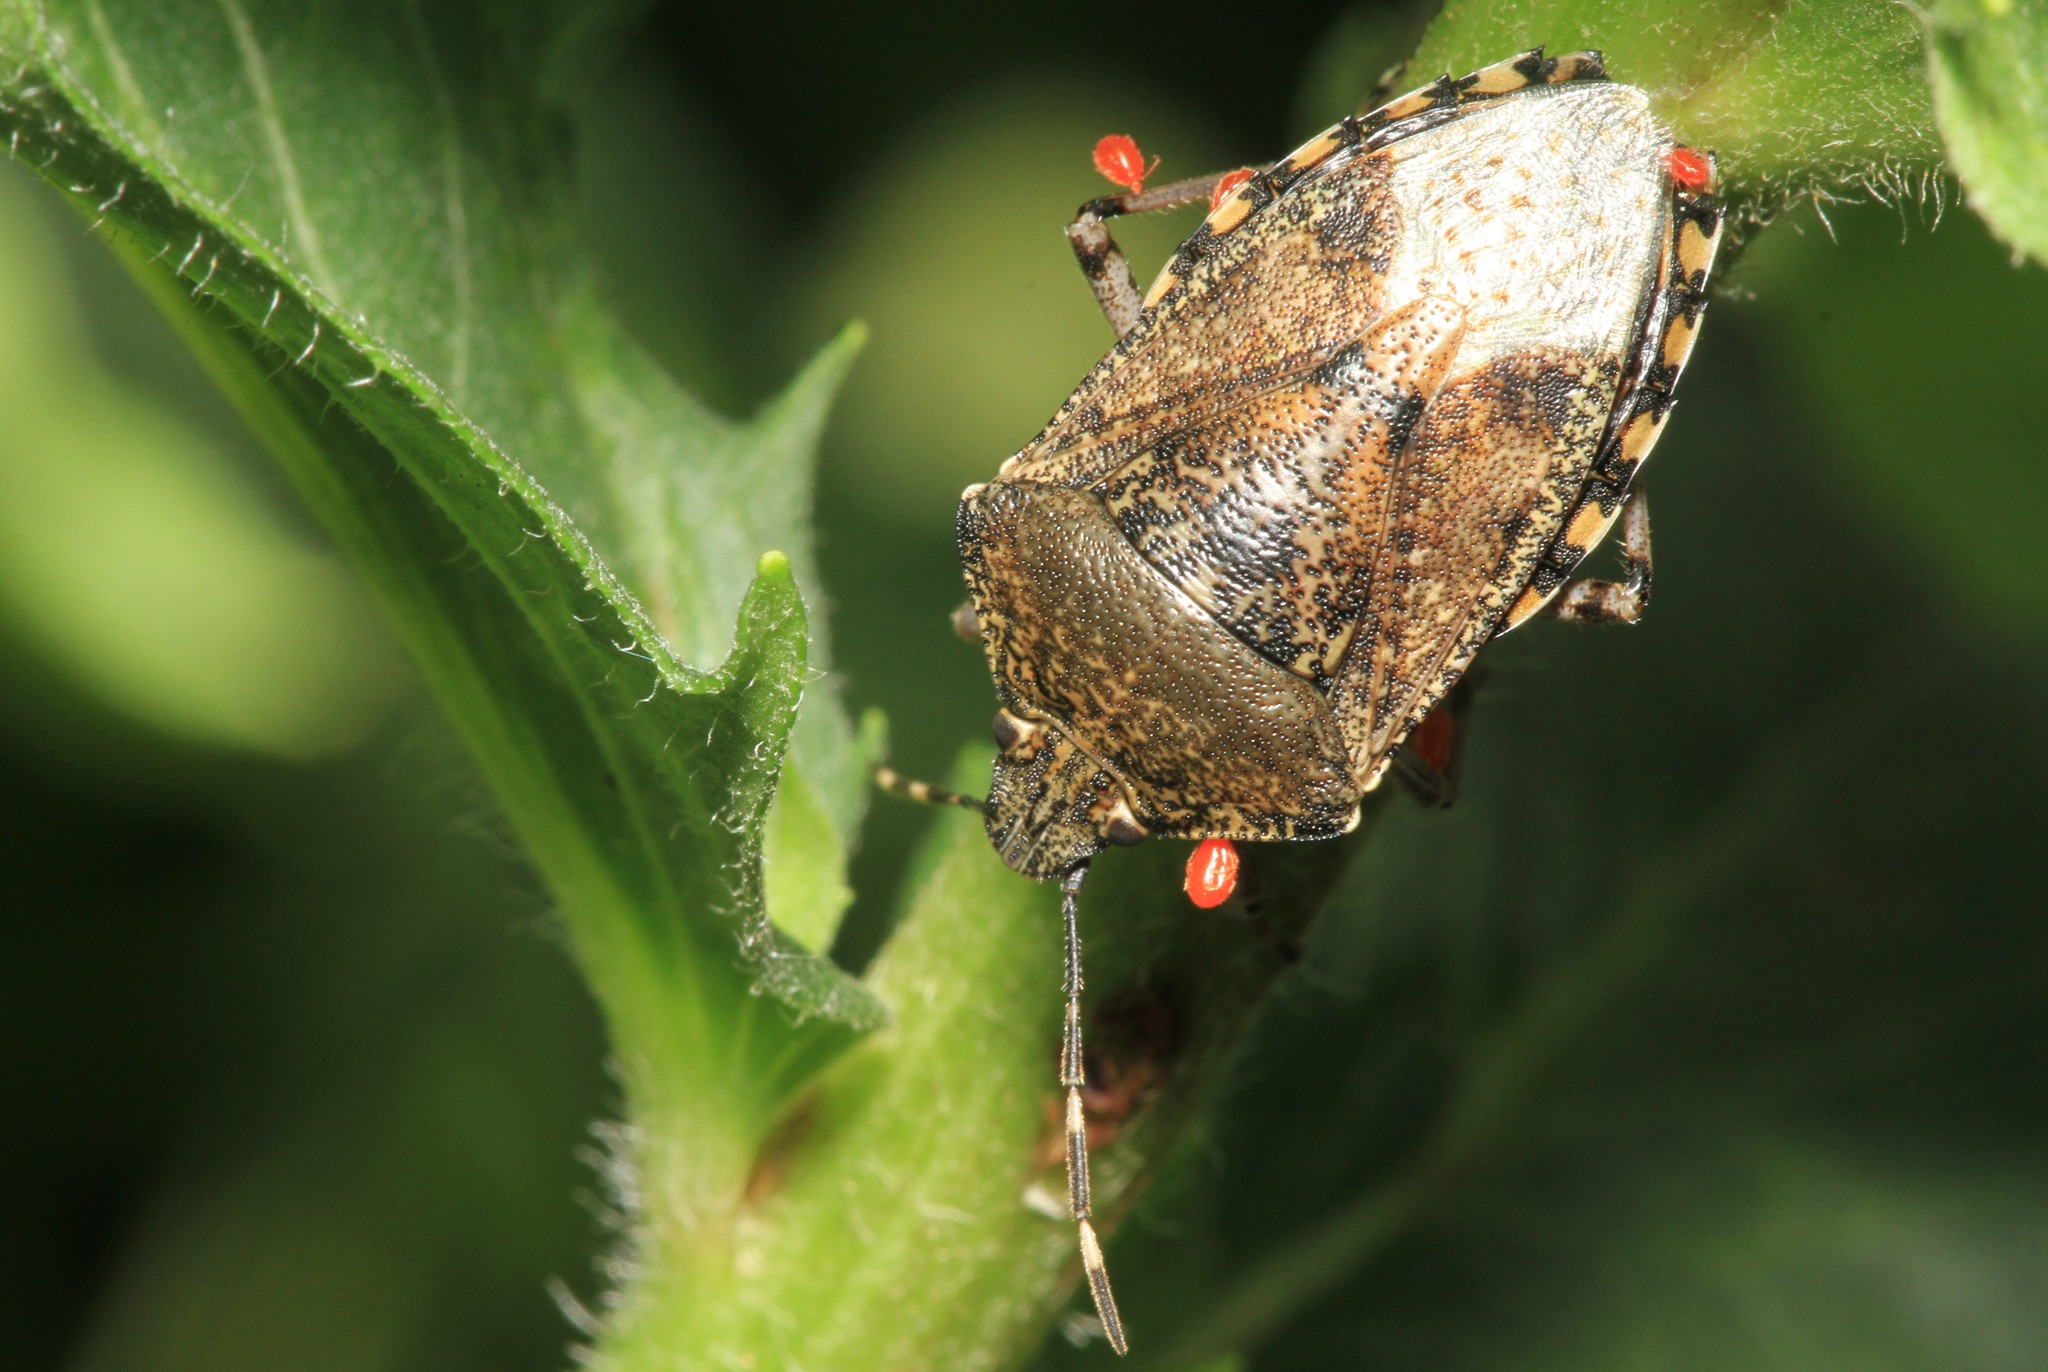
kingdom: Animalia
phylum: Arthropoda
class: Insecta
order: Hemiptera
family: Pentatomidae
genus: Rhaphigaster
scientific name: Rhaphigaster nebulosa
